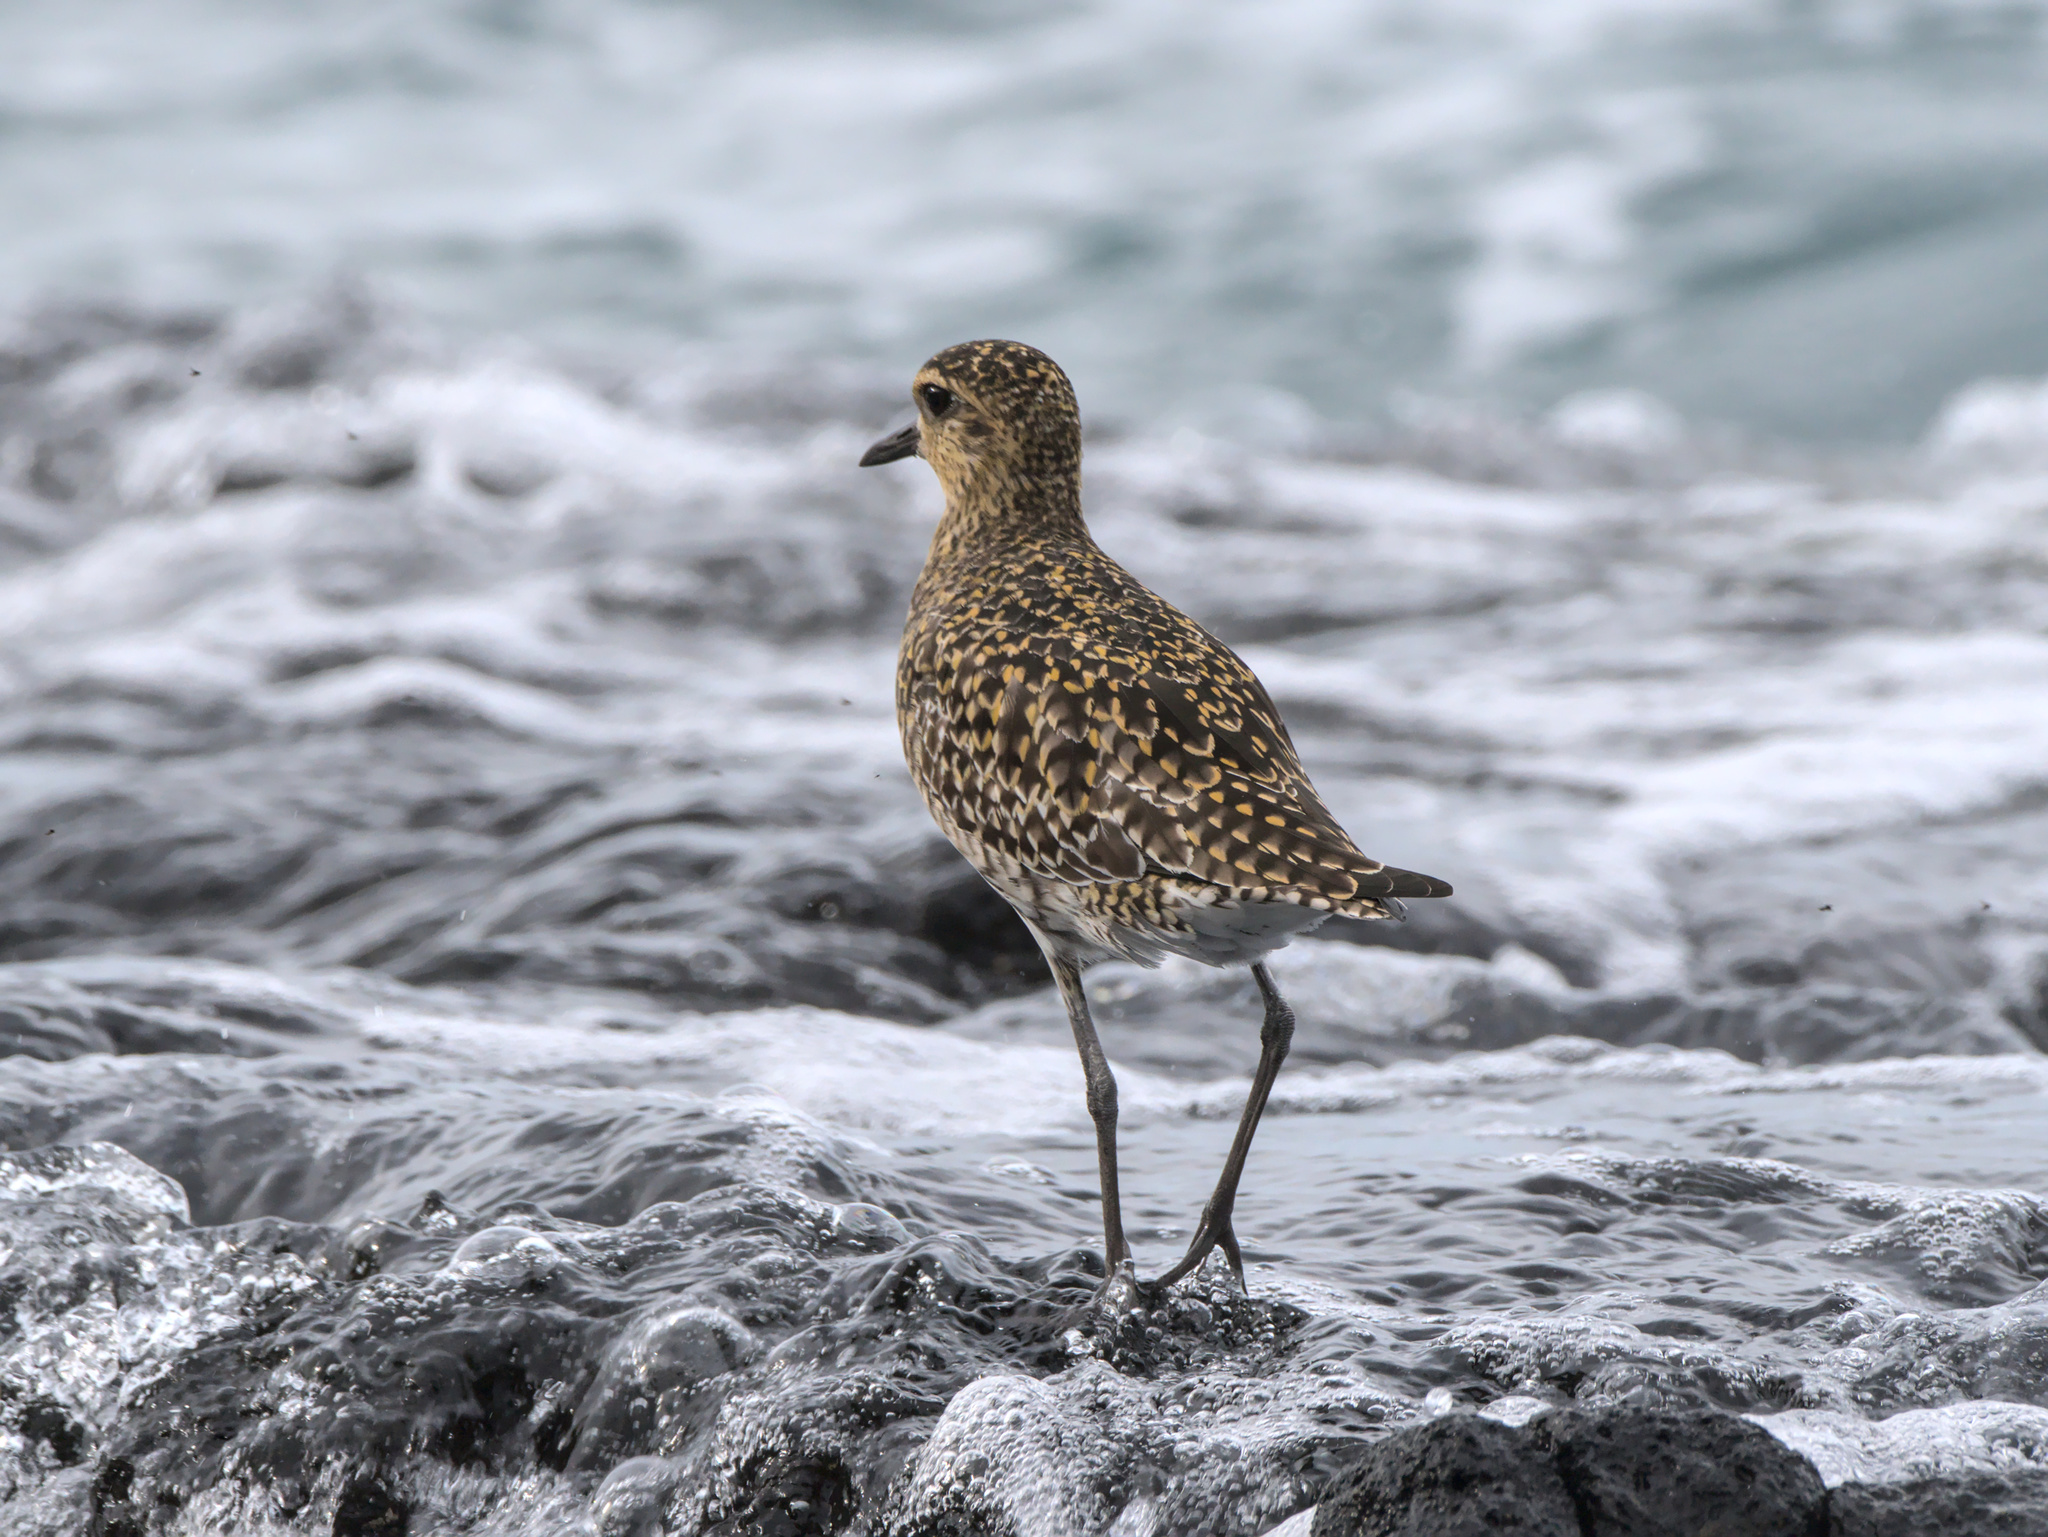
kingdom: Animalia
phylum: Chordata
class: Aves
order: Charadriiformes
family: Charadriidae
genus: Pluvialis
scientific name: Pluvialis fulva
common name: Pacific golden plover
